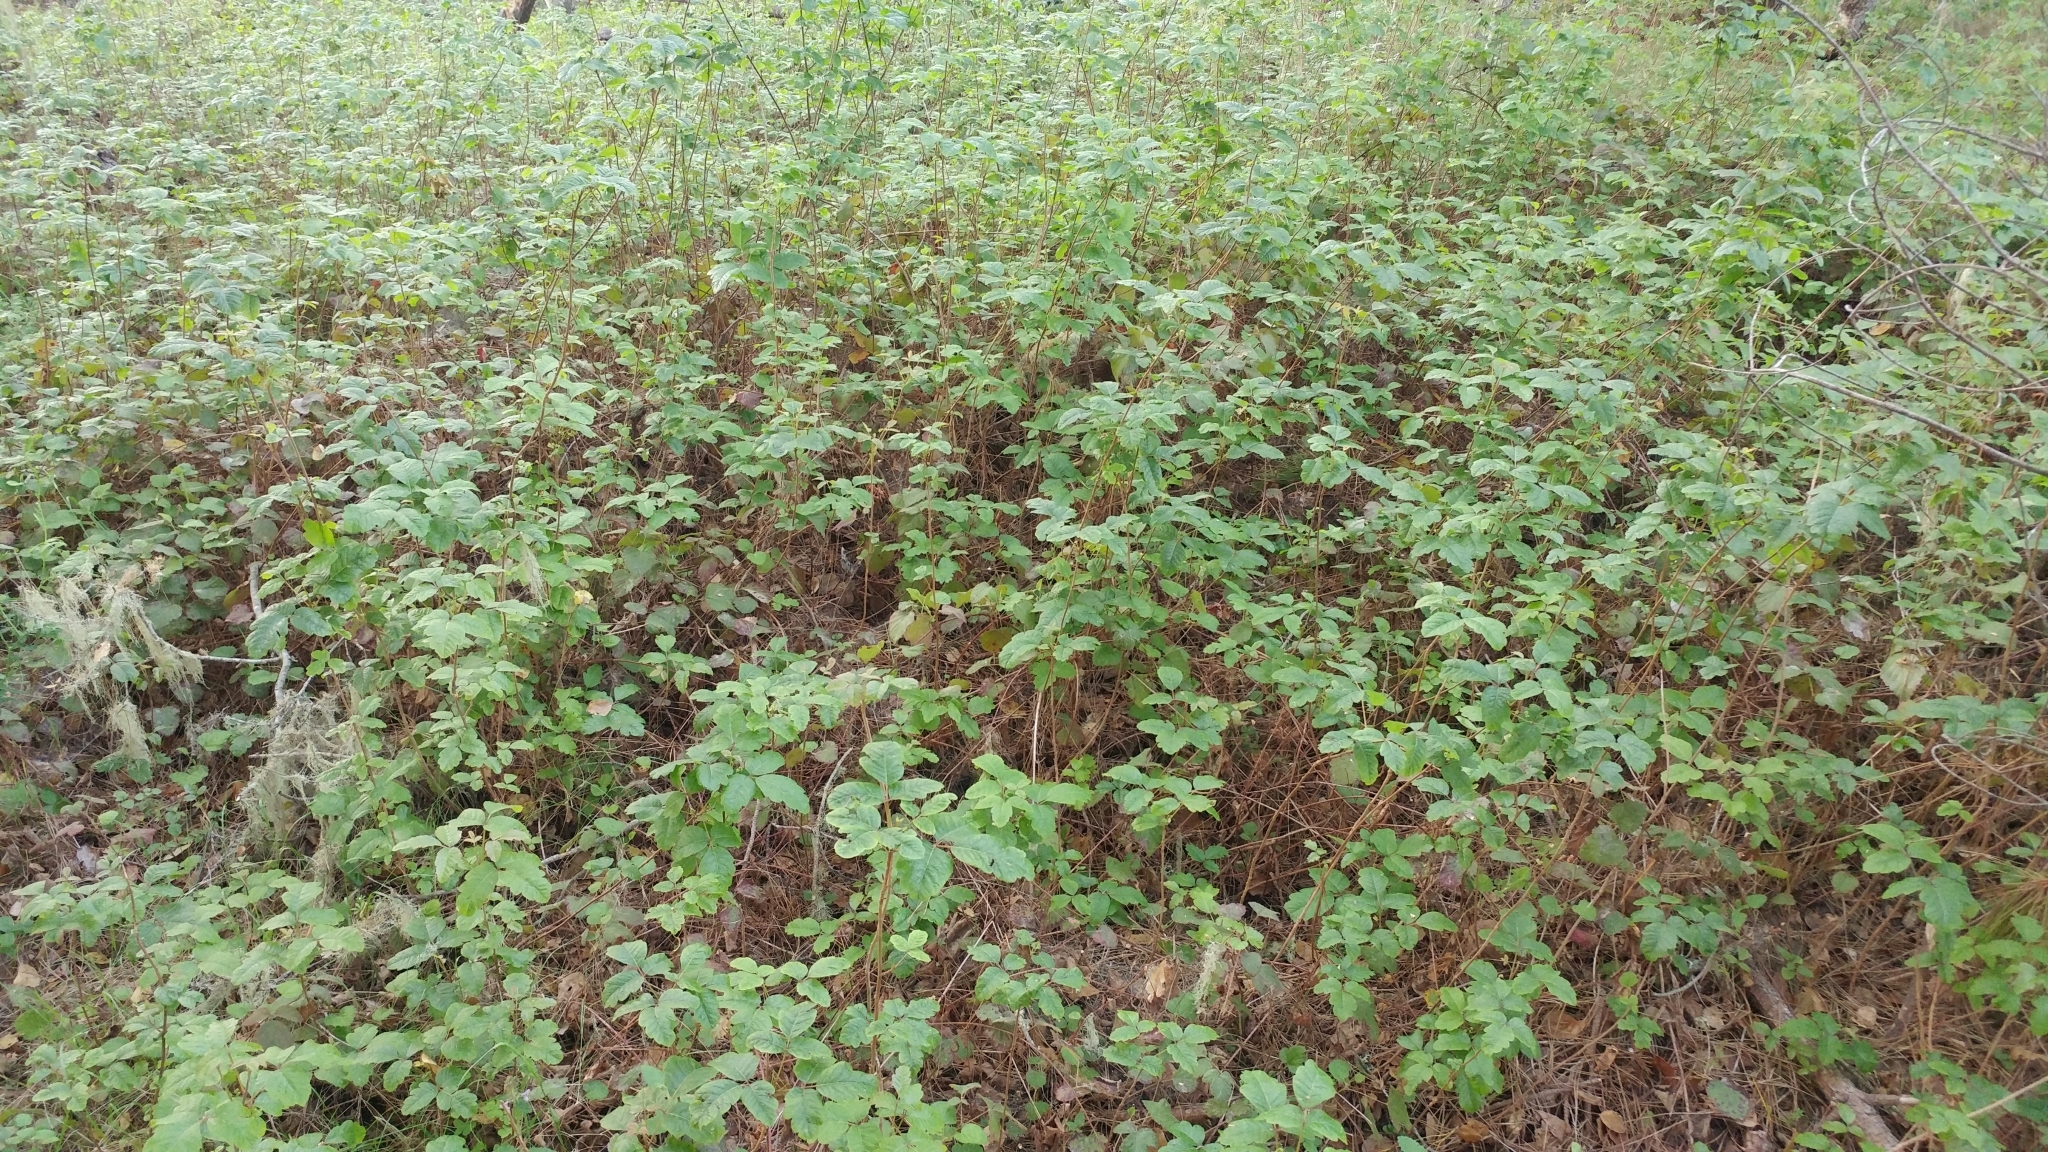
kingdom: Plantae
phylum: Tracheophyta
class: Magnoliopsida
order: Sapindales
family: Anacardiaceae
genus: Toxicodendron
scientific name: Toxicodendron diversilobum
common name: Pacific poison-oak
